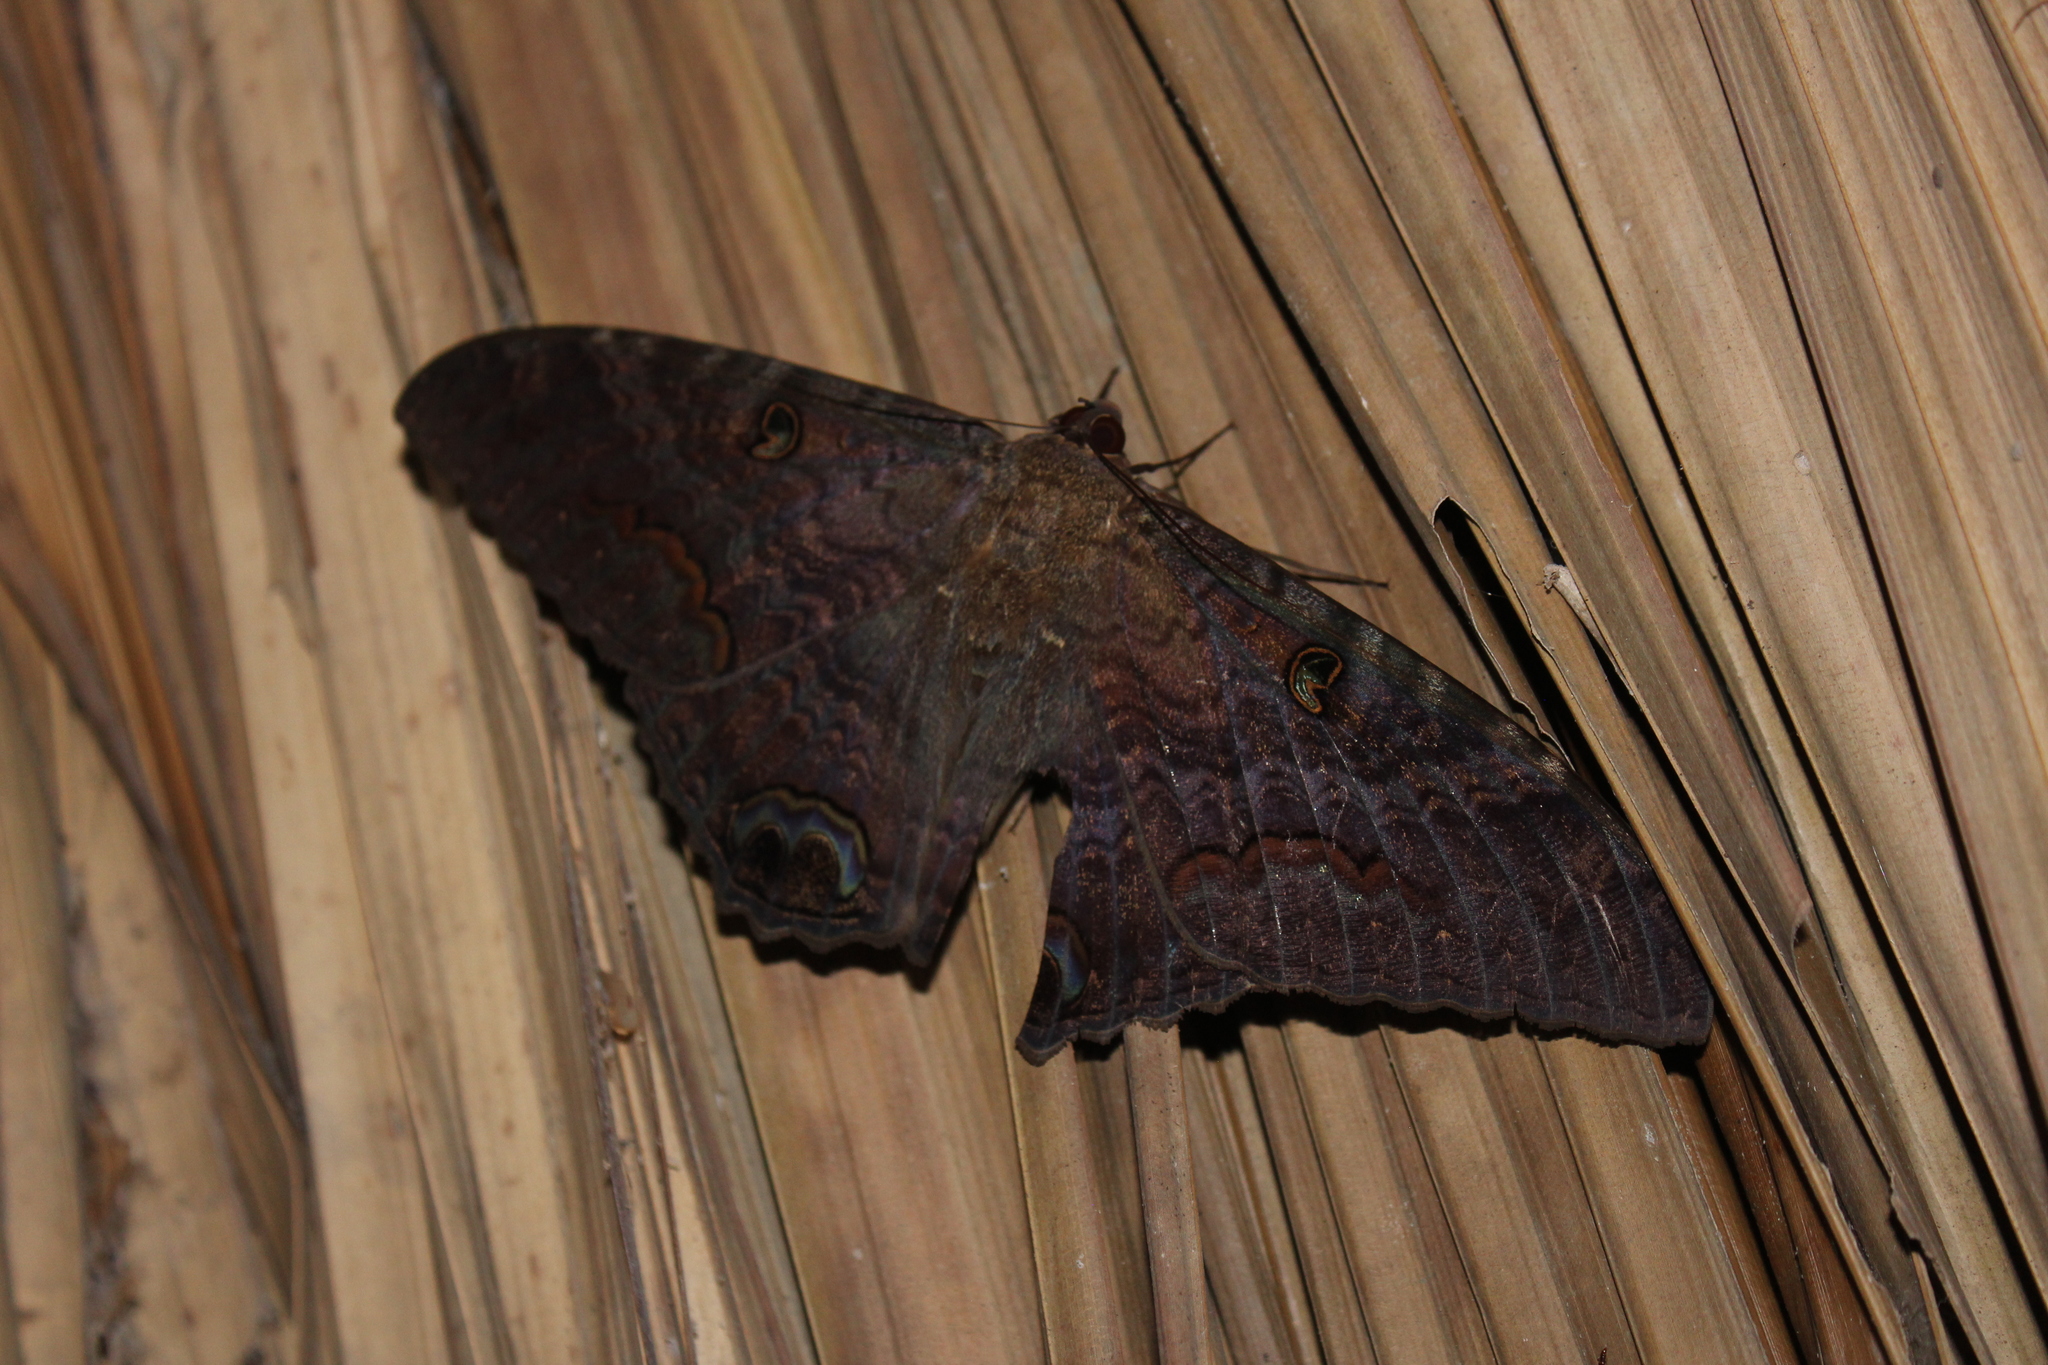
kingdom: Animalia
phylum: Arthropoda
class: Insecta
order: Lepidoptera
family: Erebidae
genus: Ascalapha
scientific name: Ascalapha odorata
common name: Black witch
